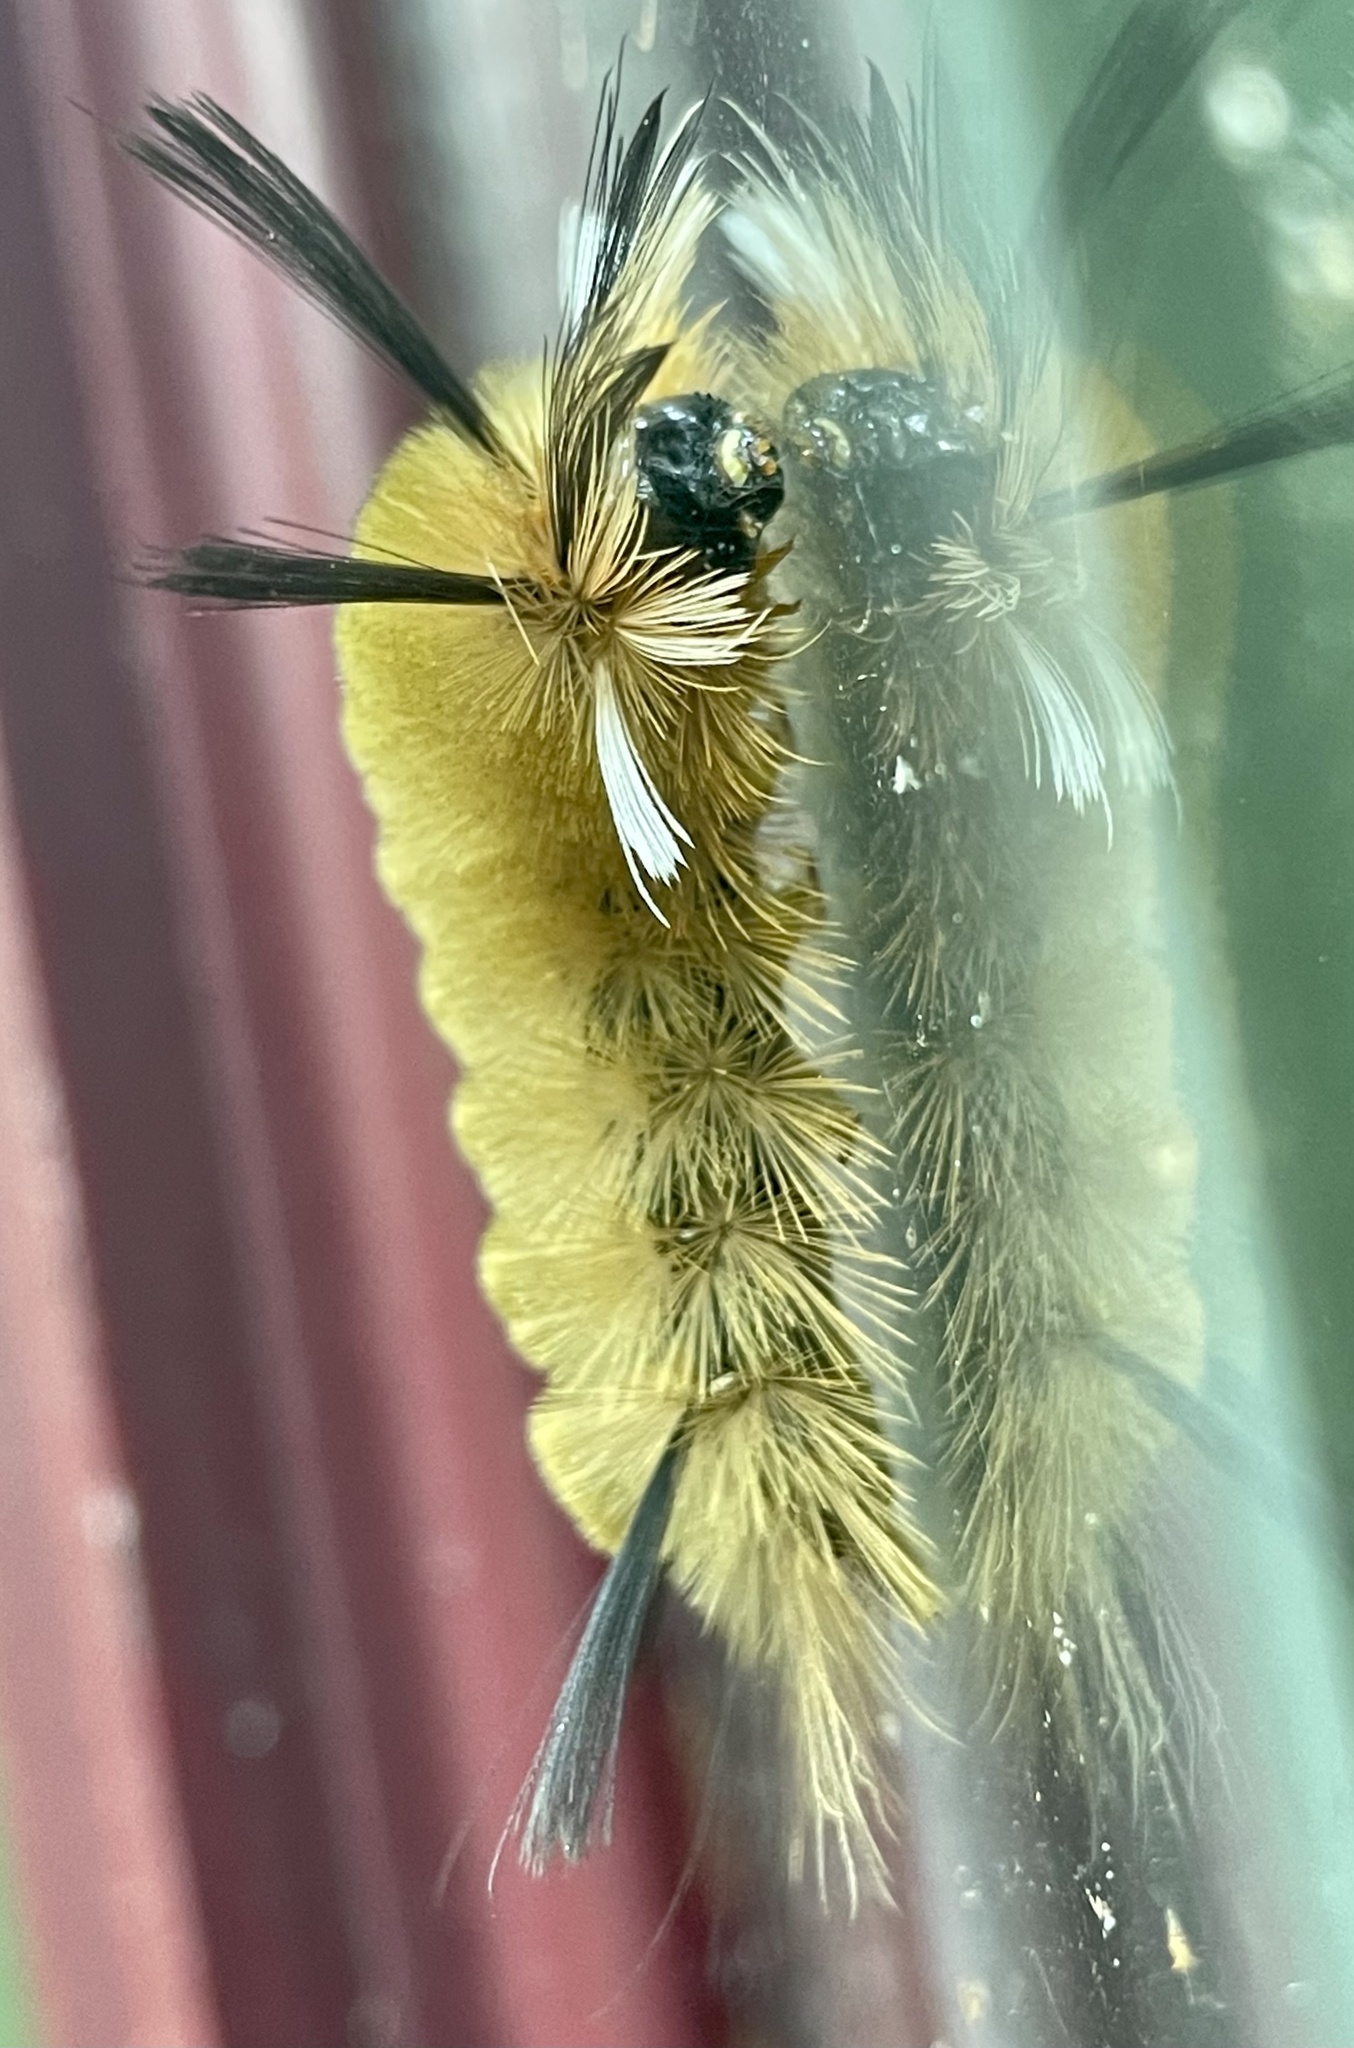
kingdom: Animalia
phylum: Arthropoda
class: Insecta
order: Lepidoptera
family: Erebidae
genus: Halysidota
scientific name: Halysidota tessellaris
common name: Banded tussock moth
